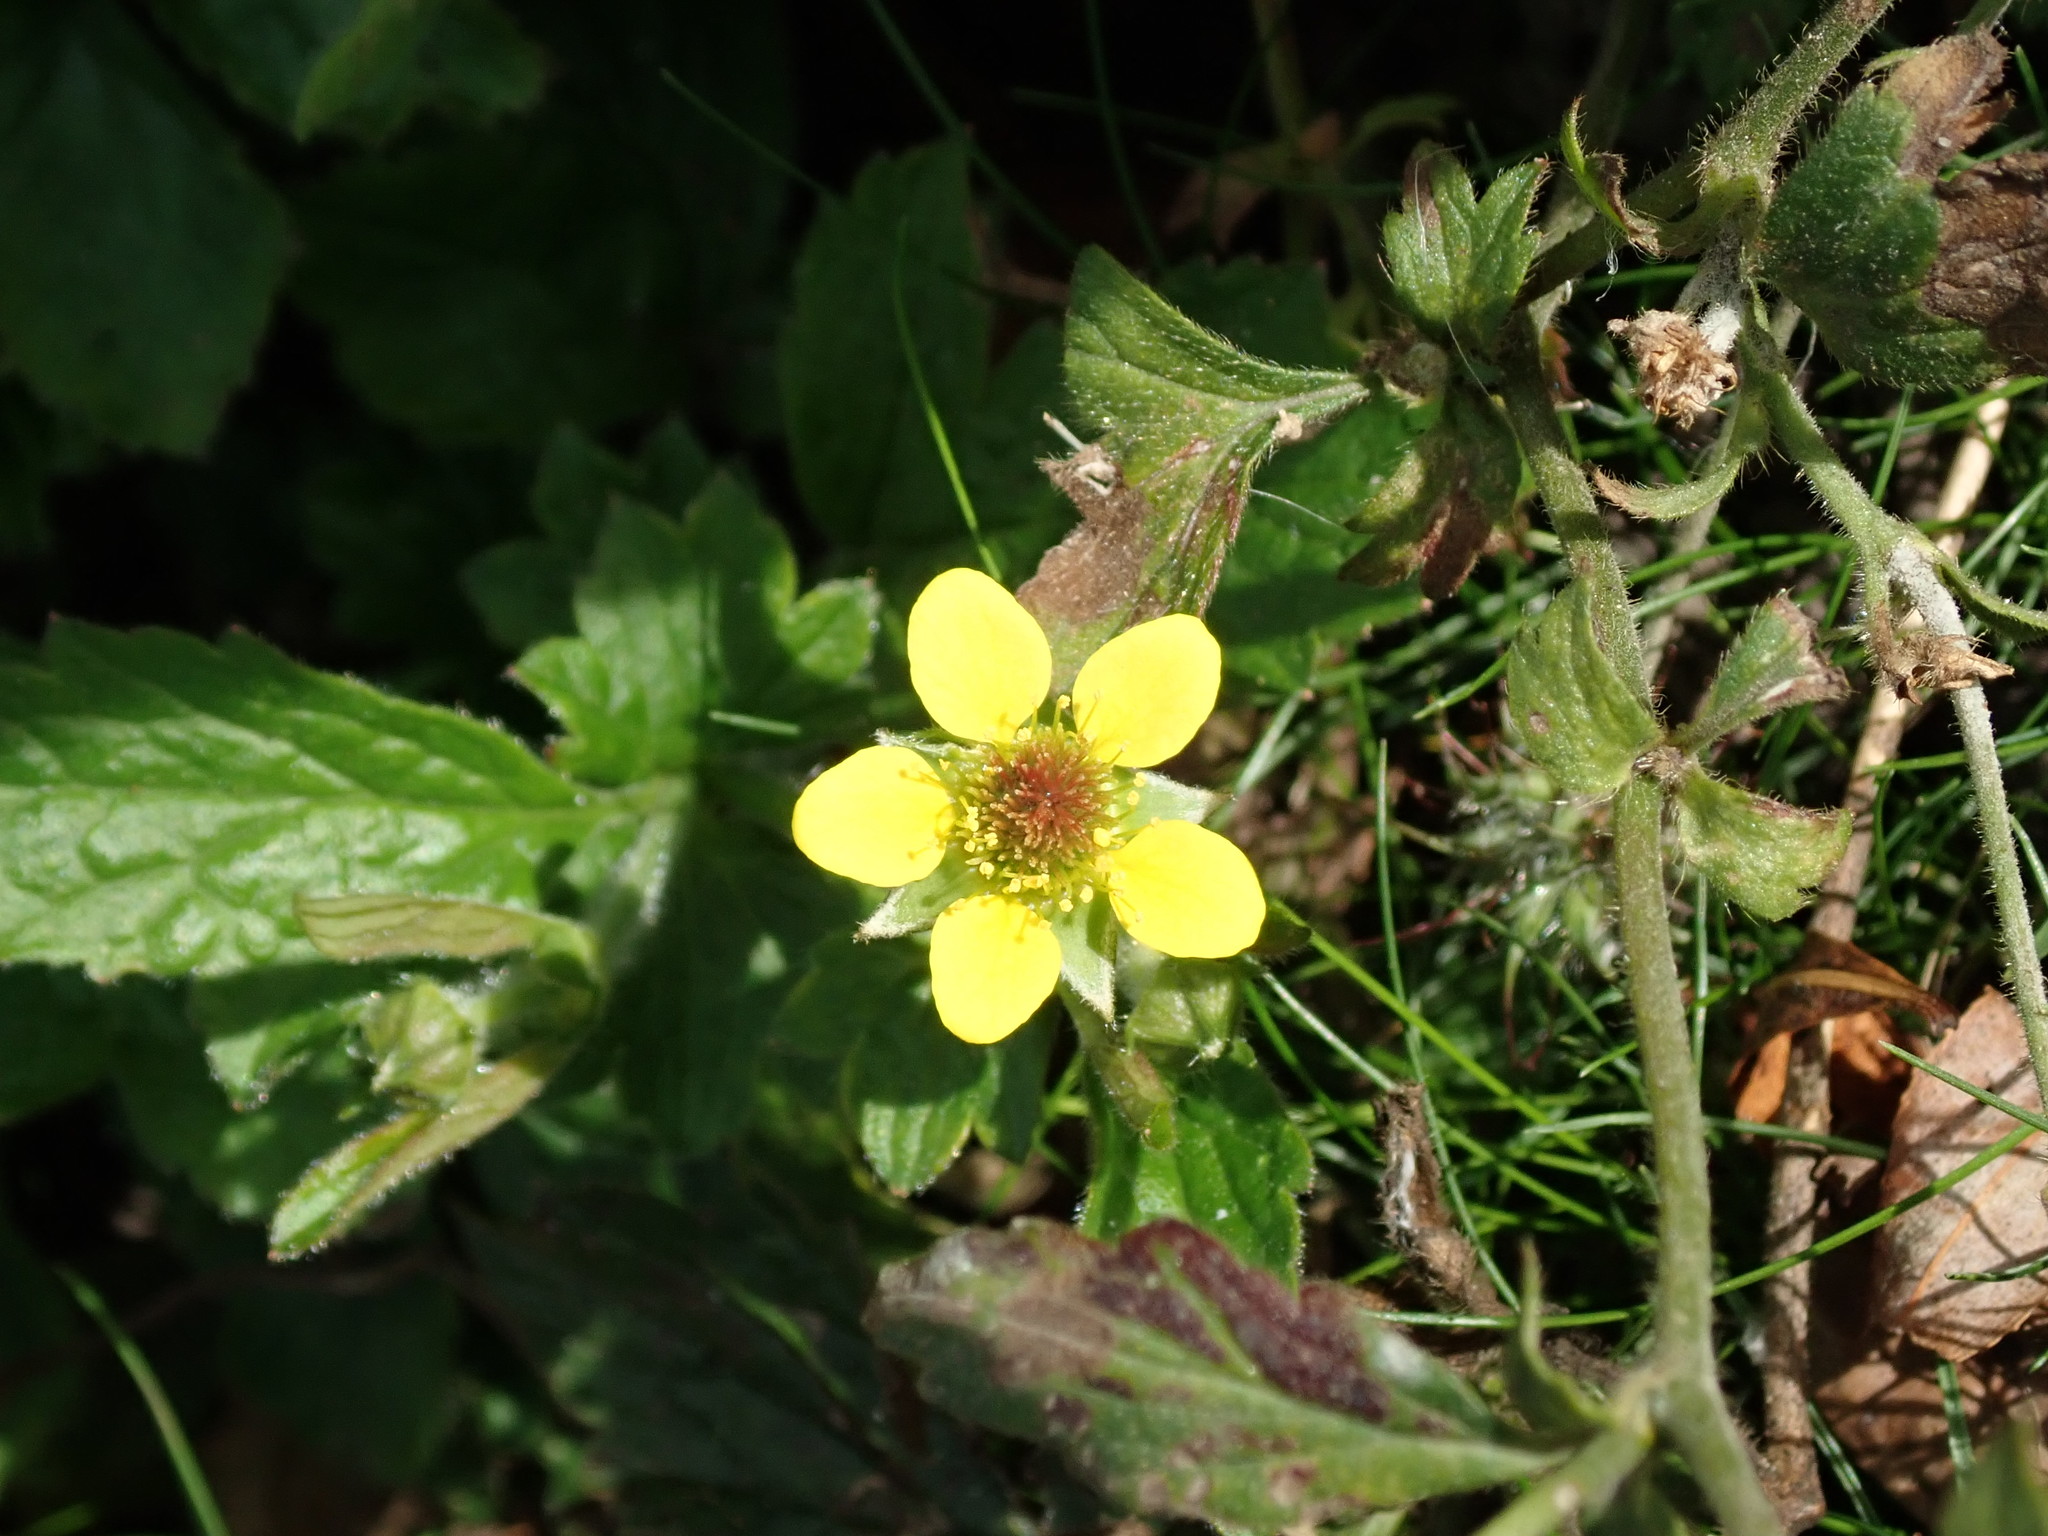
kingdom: Plantae
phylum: Tracheophyta
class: Magnoliopsida
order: Rosales
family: Rosaceae
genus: Geum
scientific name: Geum urbanum
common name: Wood avens
